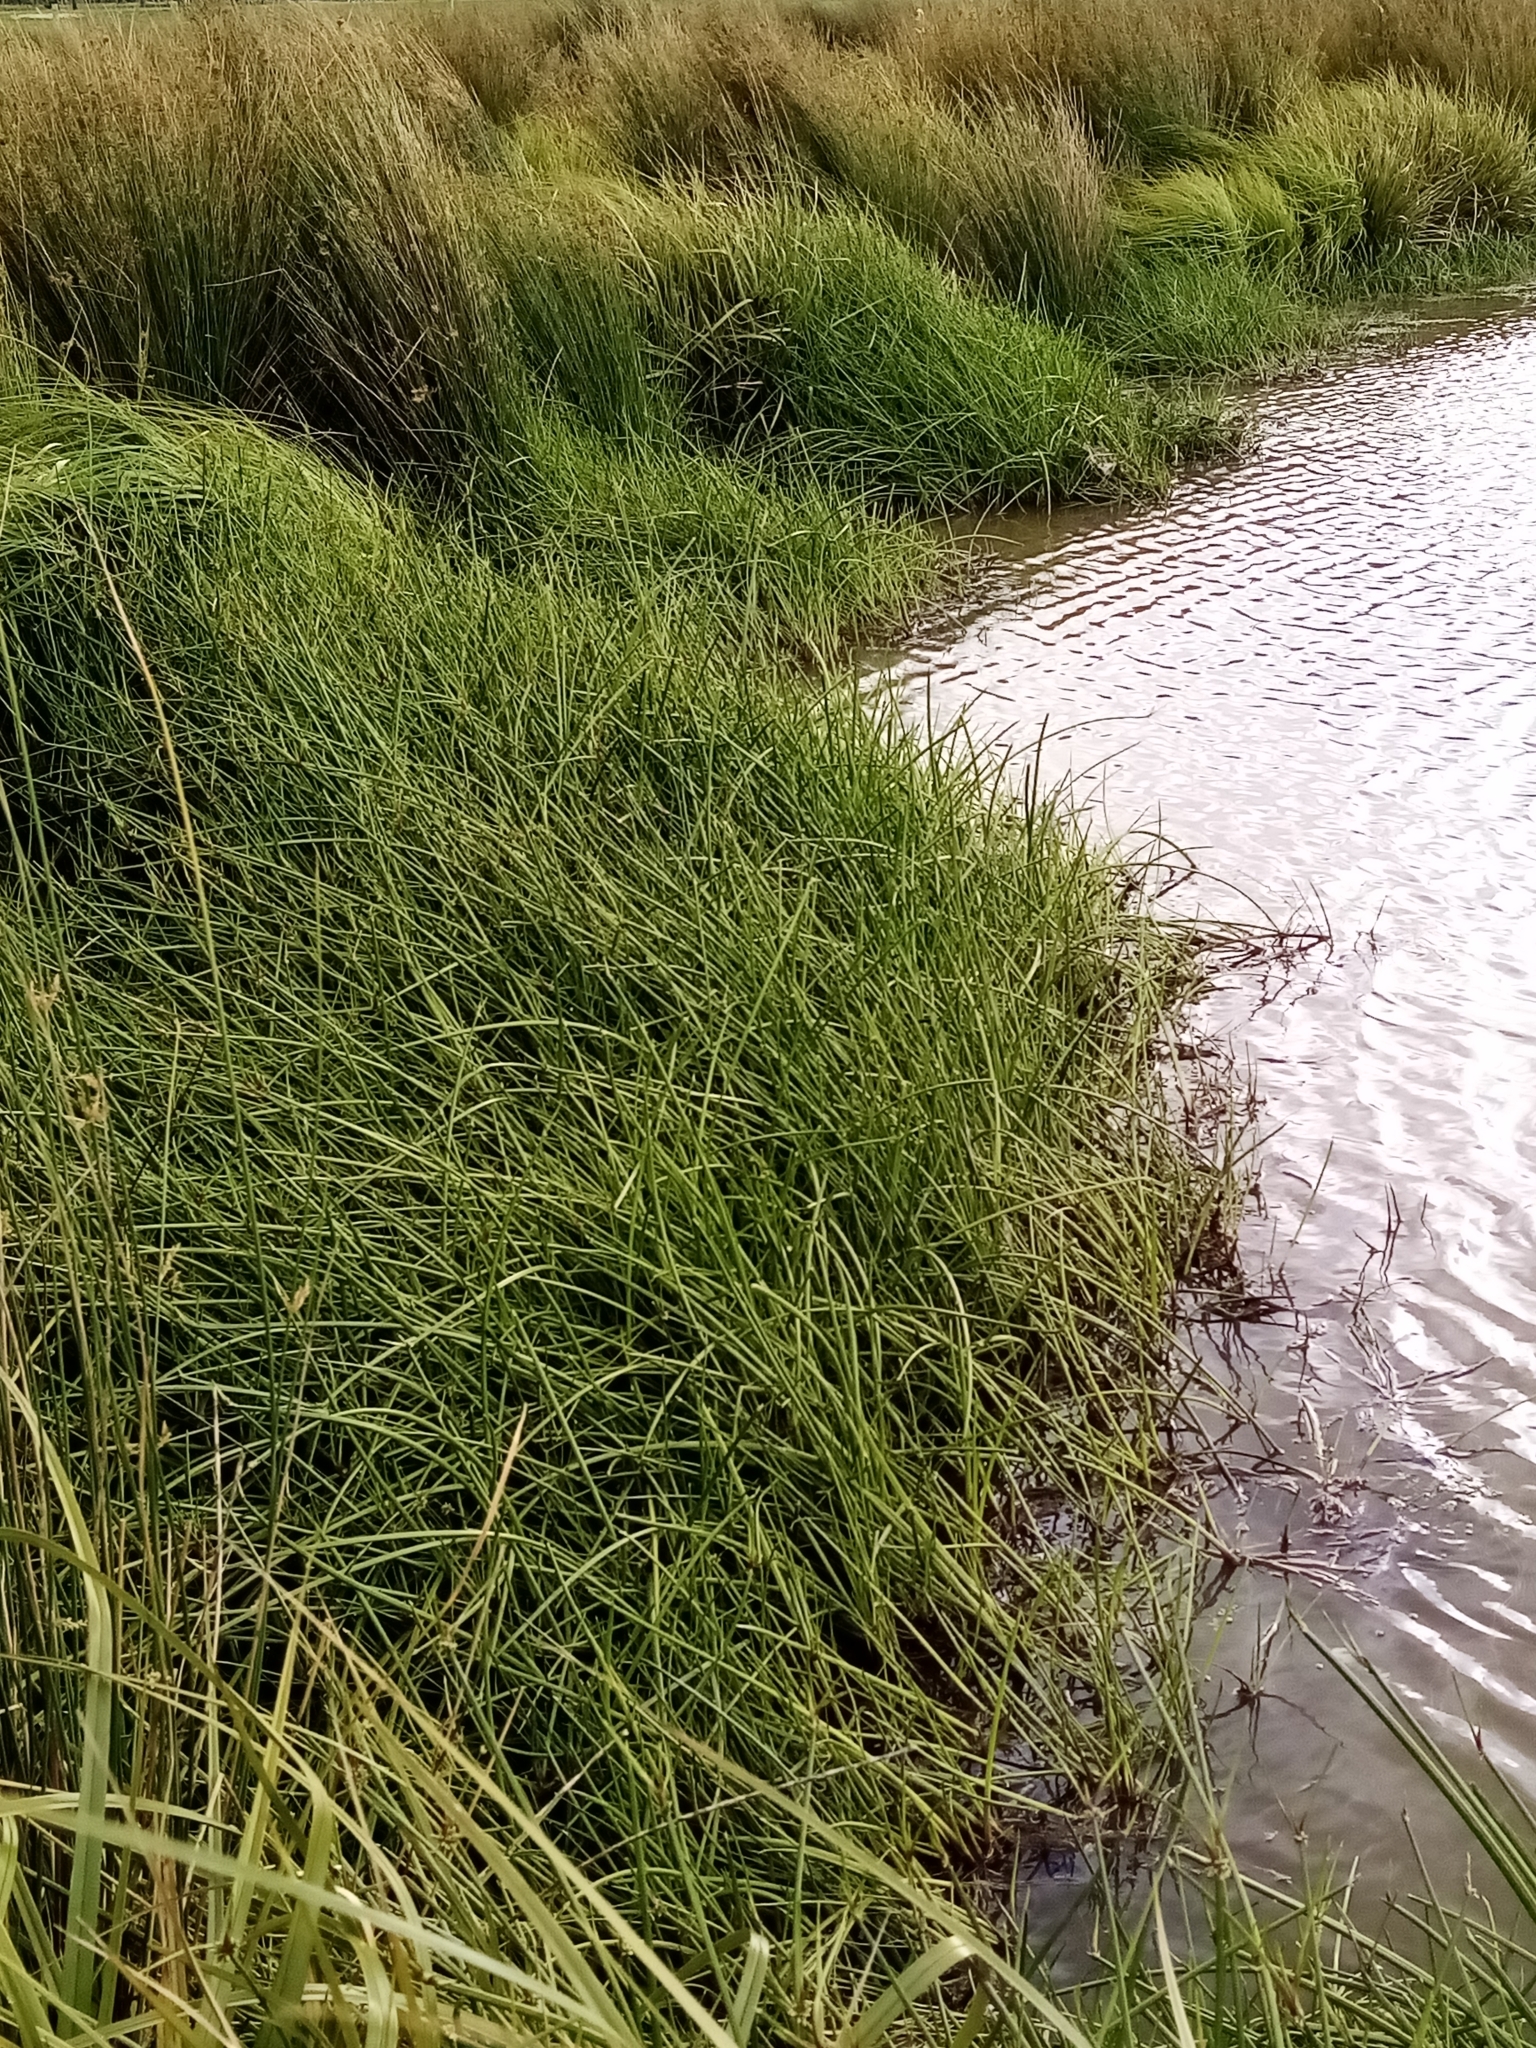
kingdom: Plantae
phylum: Tracheophyta
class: Liliopsida
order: Poales
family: Cyperaceae
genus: Isolepis
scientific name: Isolepis prolifera
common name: Proliferating bulrush
